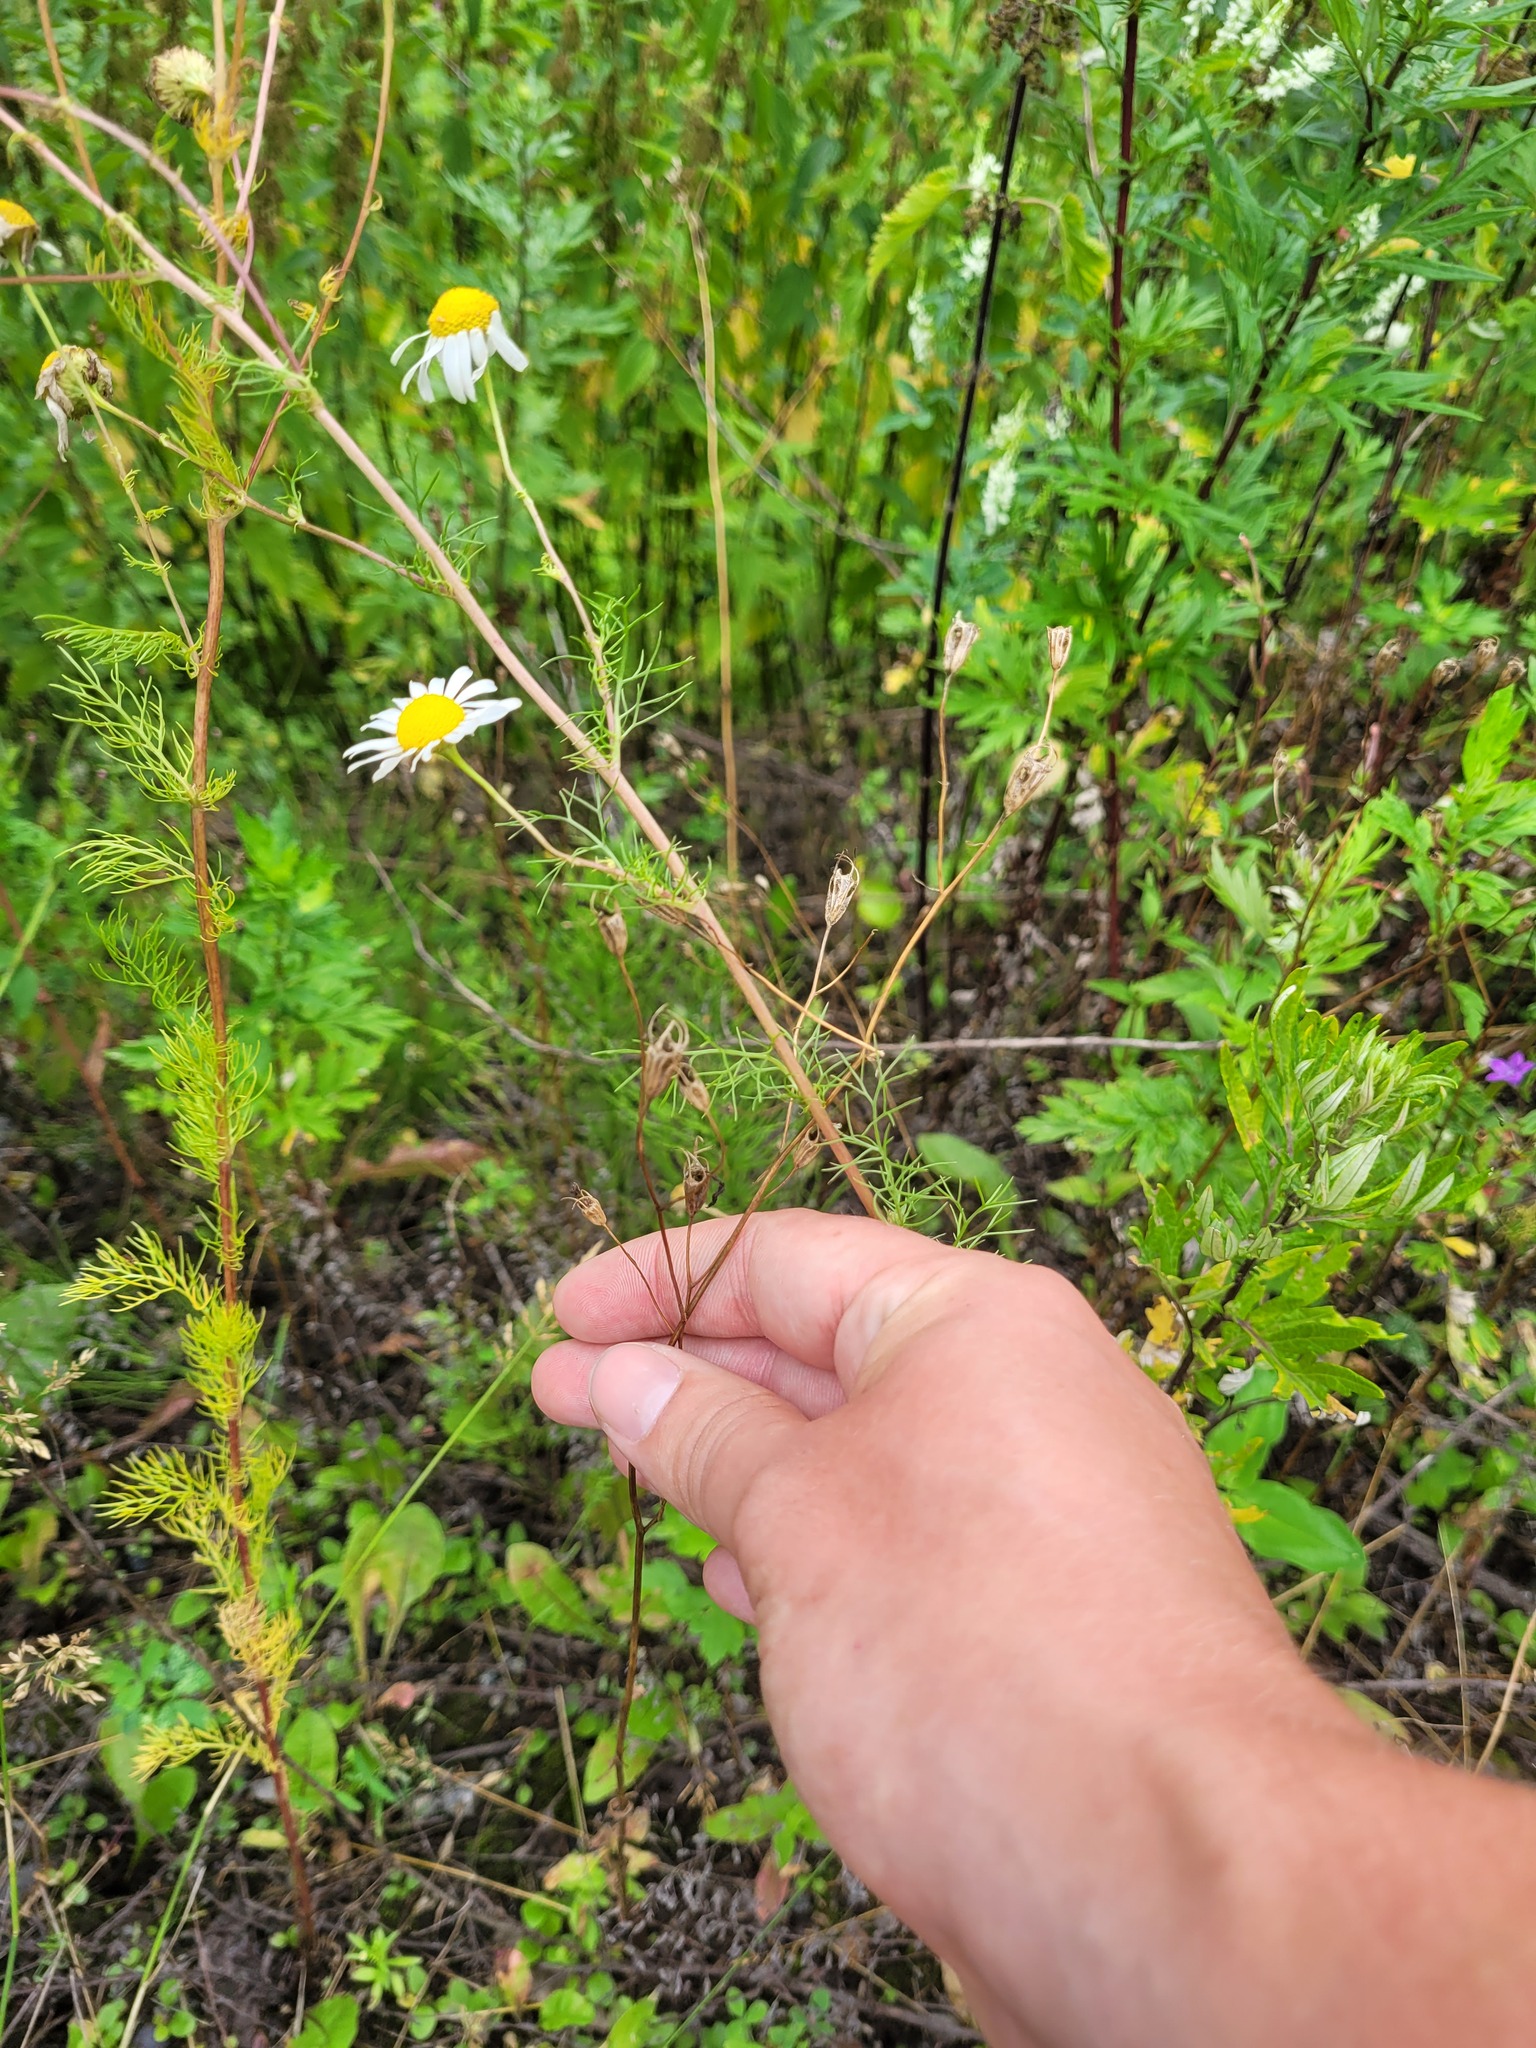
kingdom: Plantae
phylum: Tracheophyta
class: Magnoliopsida
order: Asterales
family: Campanulaceae
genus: Campanula
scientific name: Campanula patula
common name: Spreading bellflower
